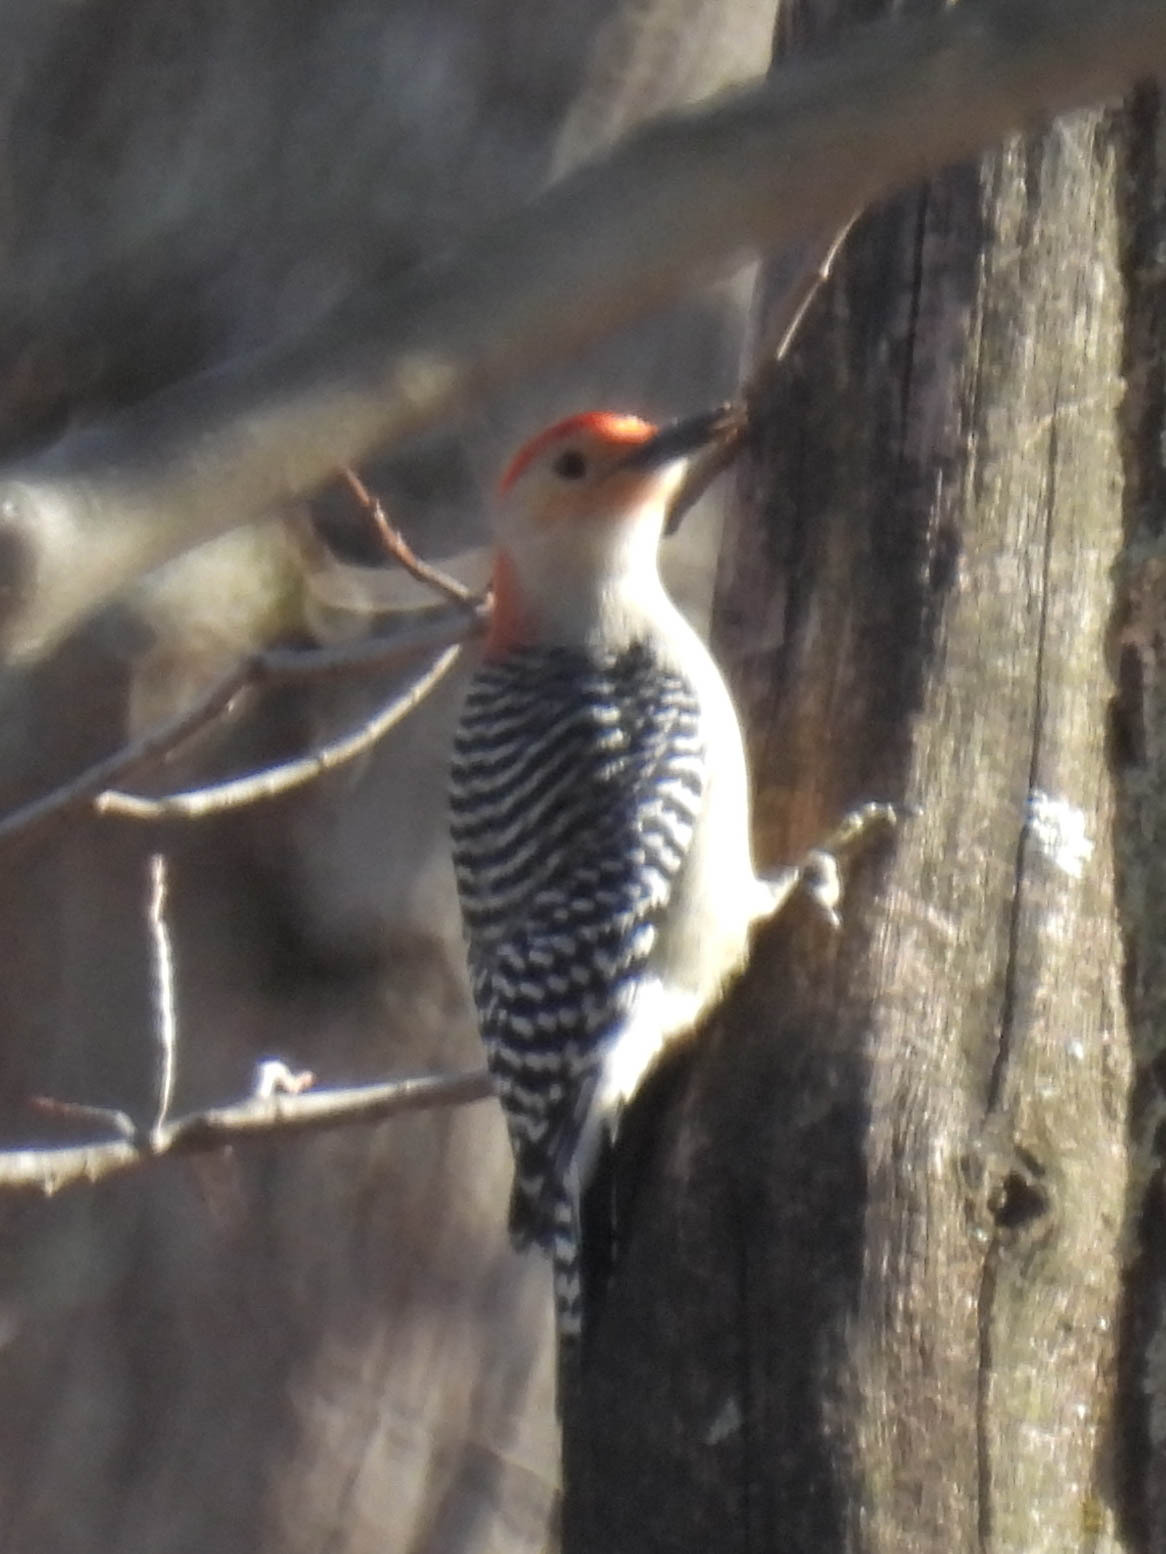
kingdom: Animalia
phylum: Chordata
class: Aves
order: Piciformes
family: Picidae
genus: Melanerpes
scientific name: Melanerpes carolinus
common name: Red-bellied woodpecker
